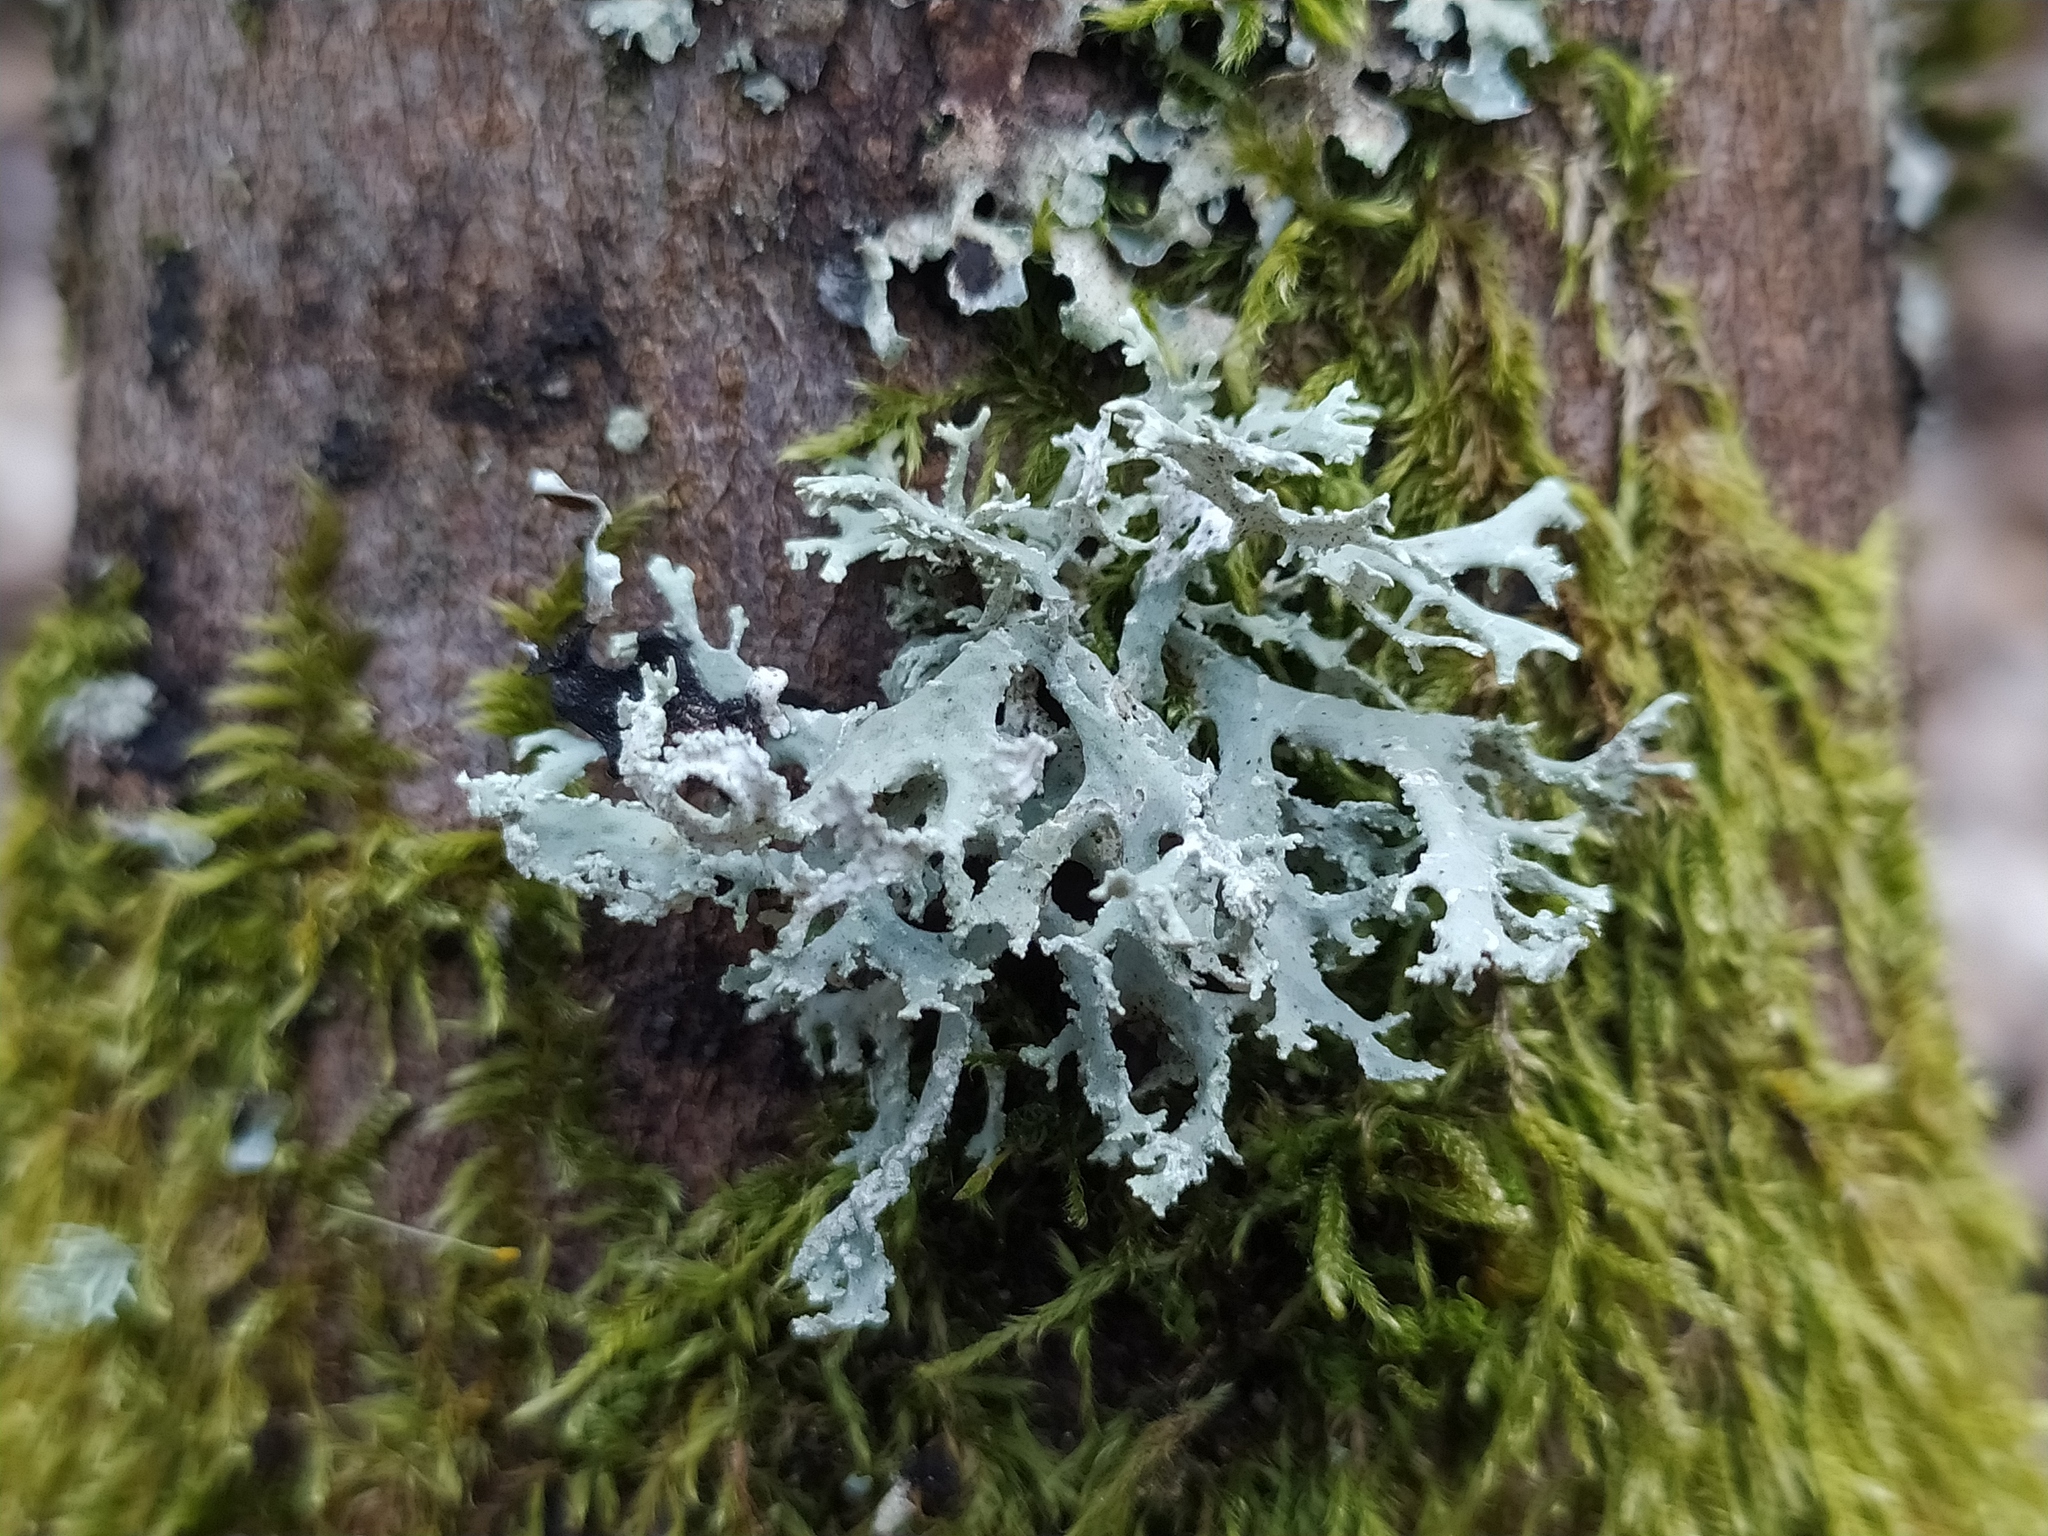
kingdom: Fungi
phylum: Ascomycota
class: Lecanoromycetes
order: Lecanorales
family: Parmeliaceae
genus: Evernia
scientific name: Evernia prunastri
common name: Oak moss
